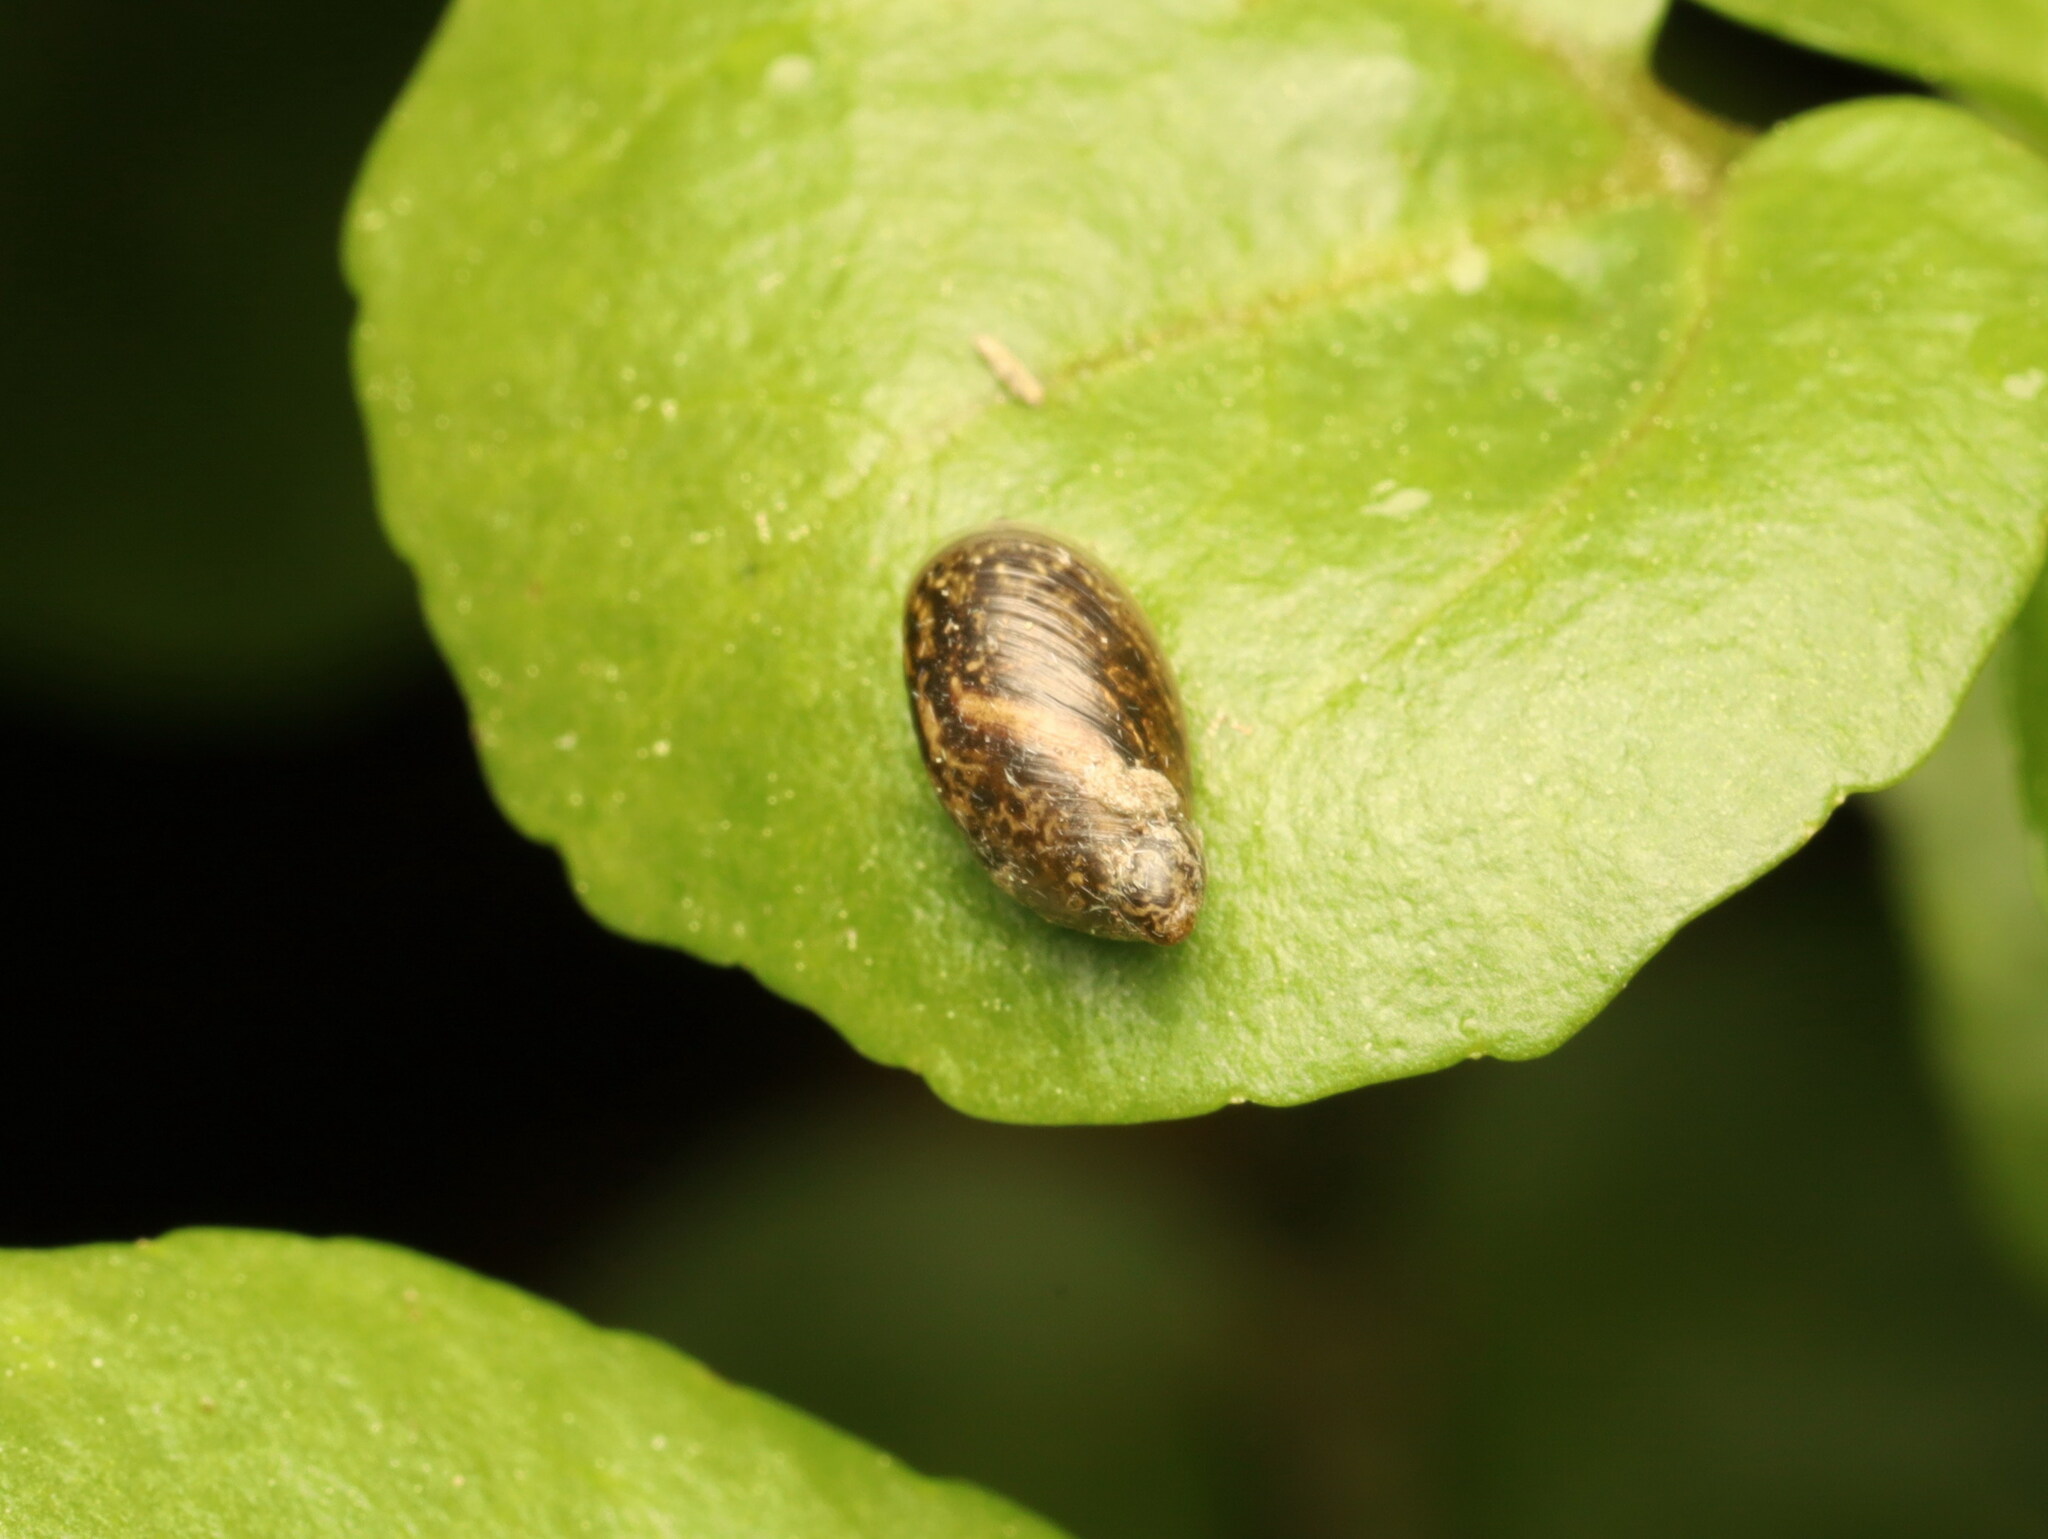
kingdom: Animalia
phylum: Mollusca
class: Gastropoda
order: Stylommatophora
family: Succineidae
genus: Oxyloma
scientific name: Oxyloma elegans
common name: Pfeiffer's amber snail
